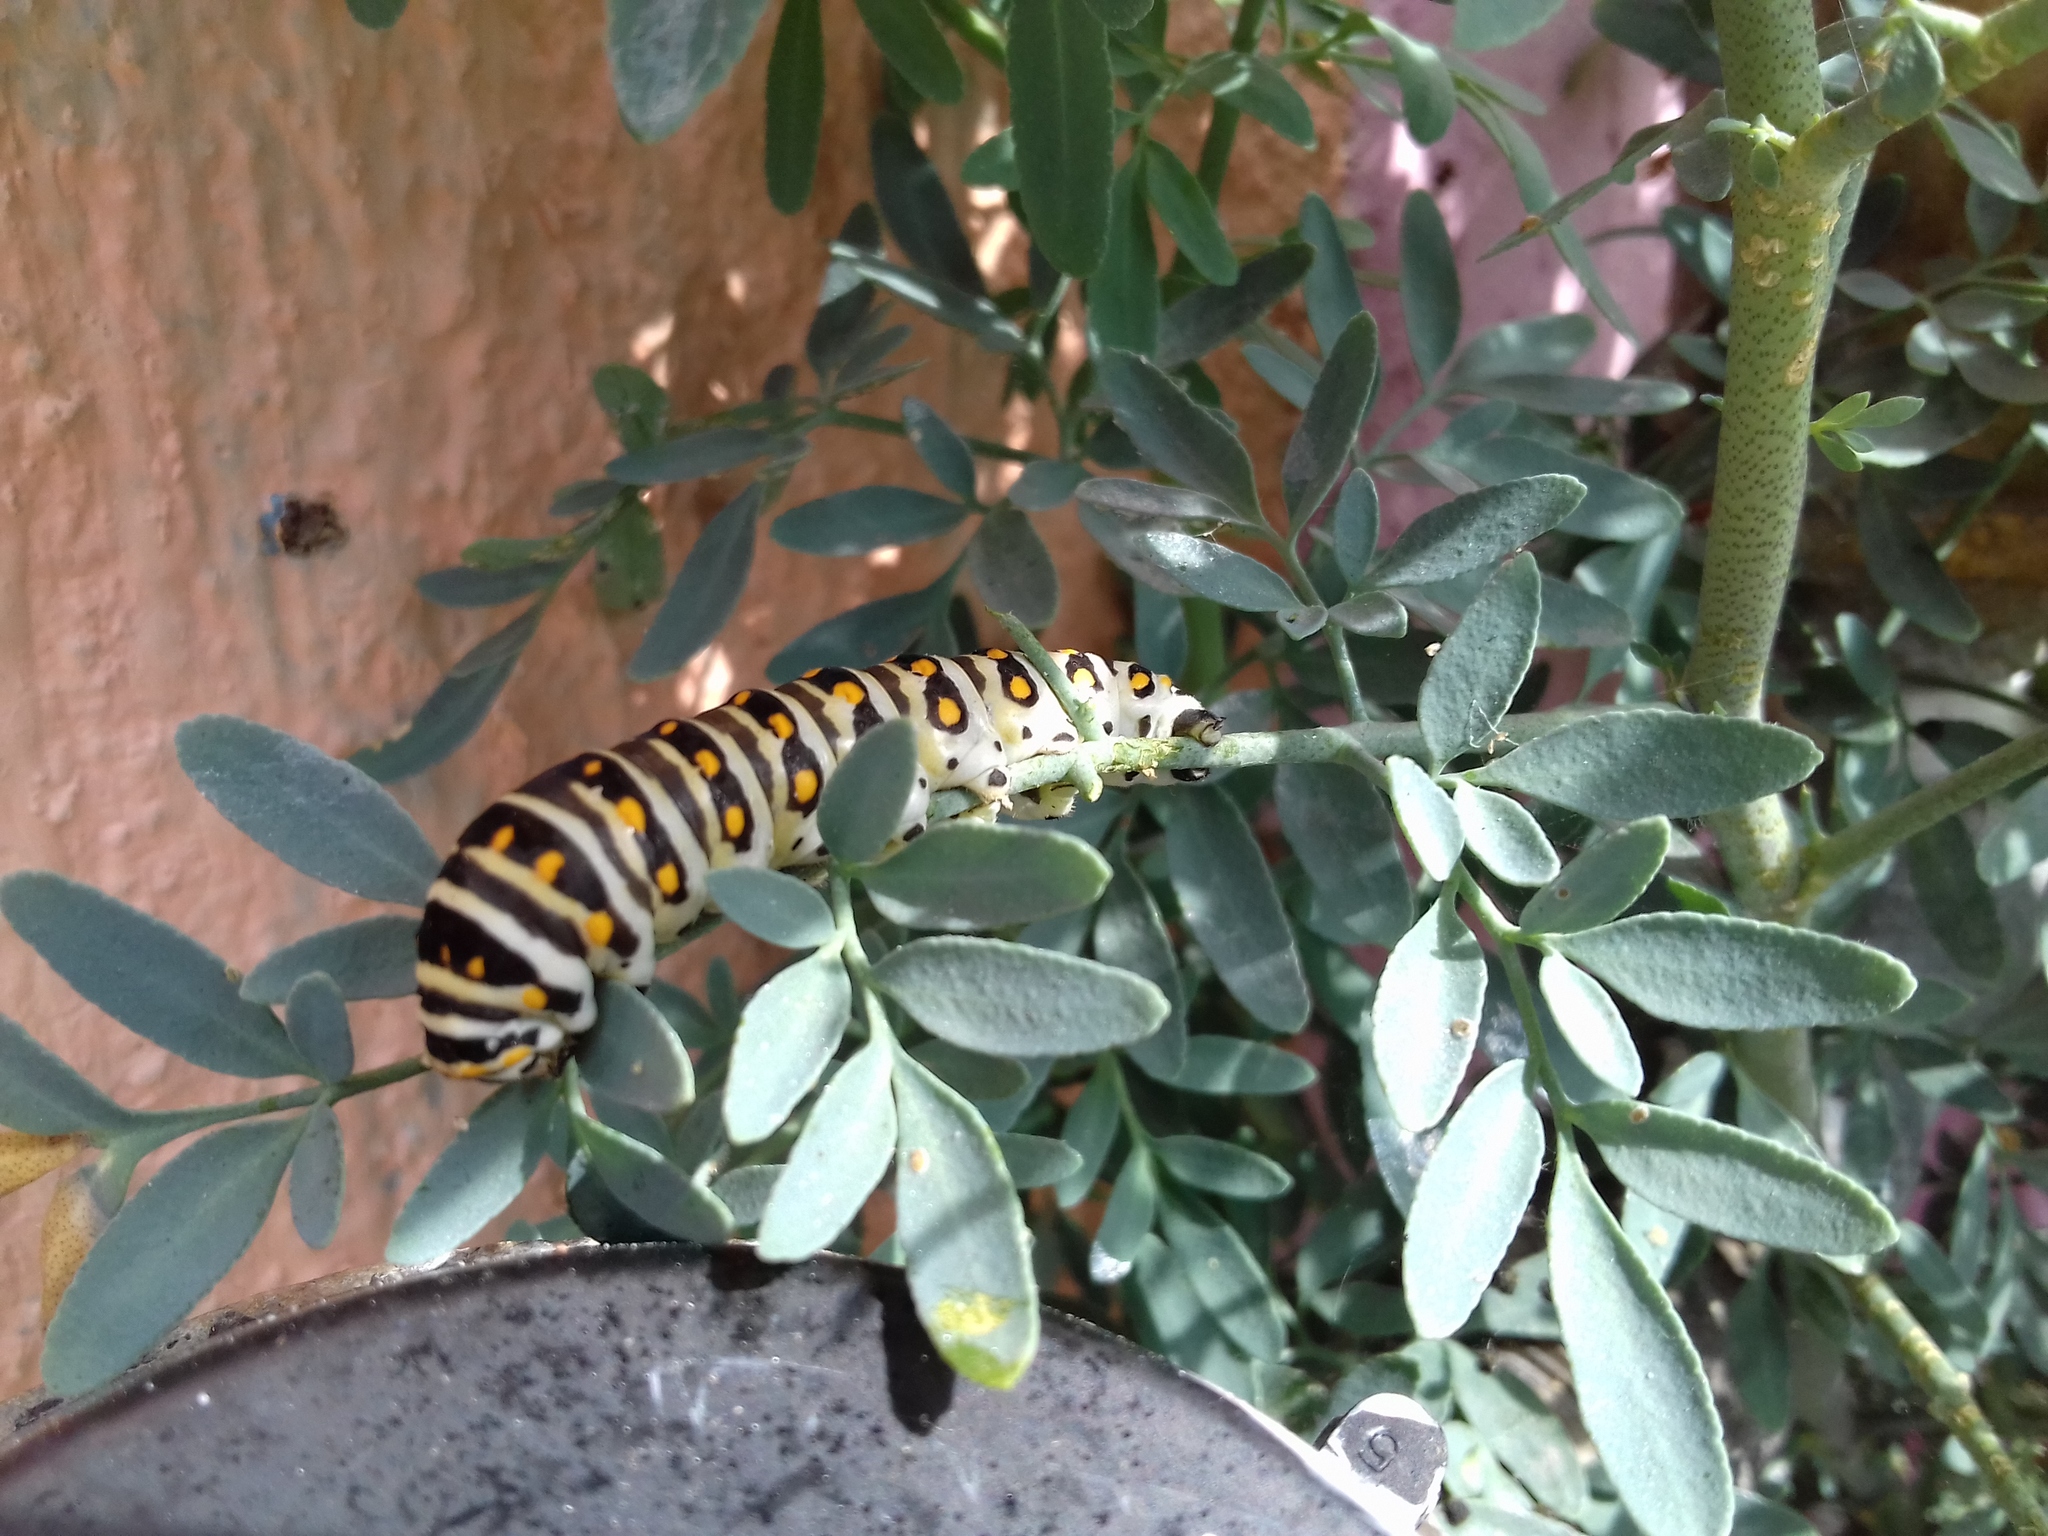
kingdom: Animalia
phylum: Arthropoda
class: Insecta
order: Lepidoptera
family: Papilionidae
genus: Papilio
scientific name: Papilio polyxenes
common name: Black swallowtail
